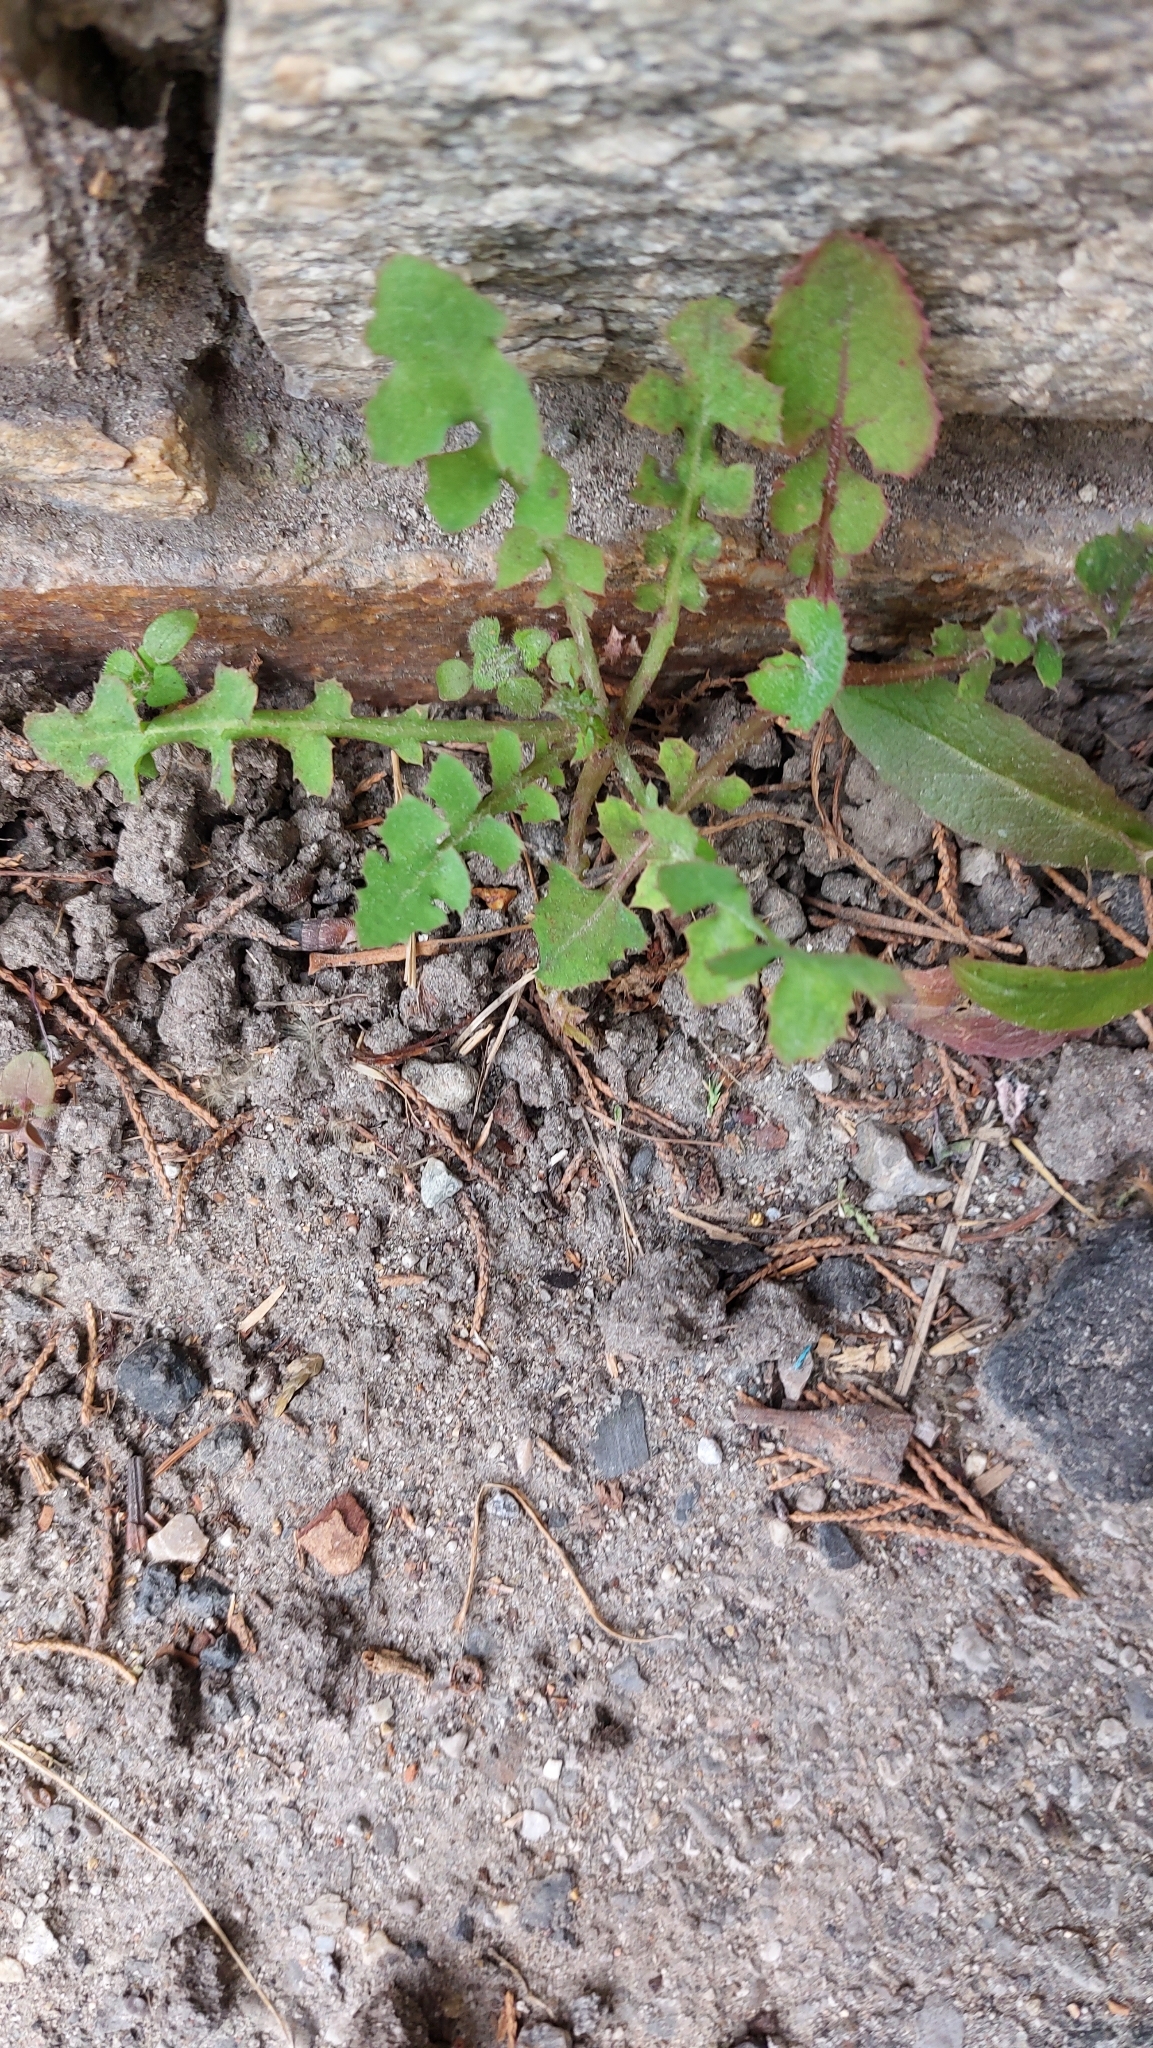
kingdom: Plantae
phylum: Tracheophyta
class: Magnoliopsida
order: Asterales
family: Asteraceae
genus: Sonchus
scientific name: Sonchus oleraceus
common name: Common sowthistle
